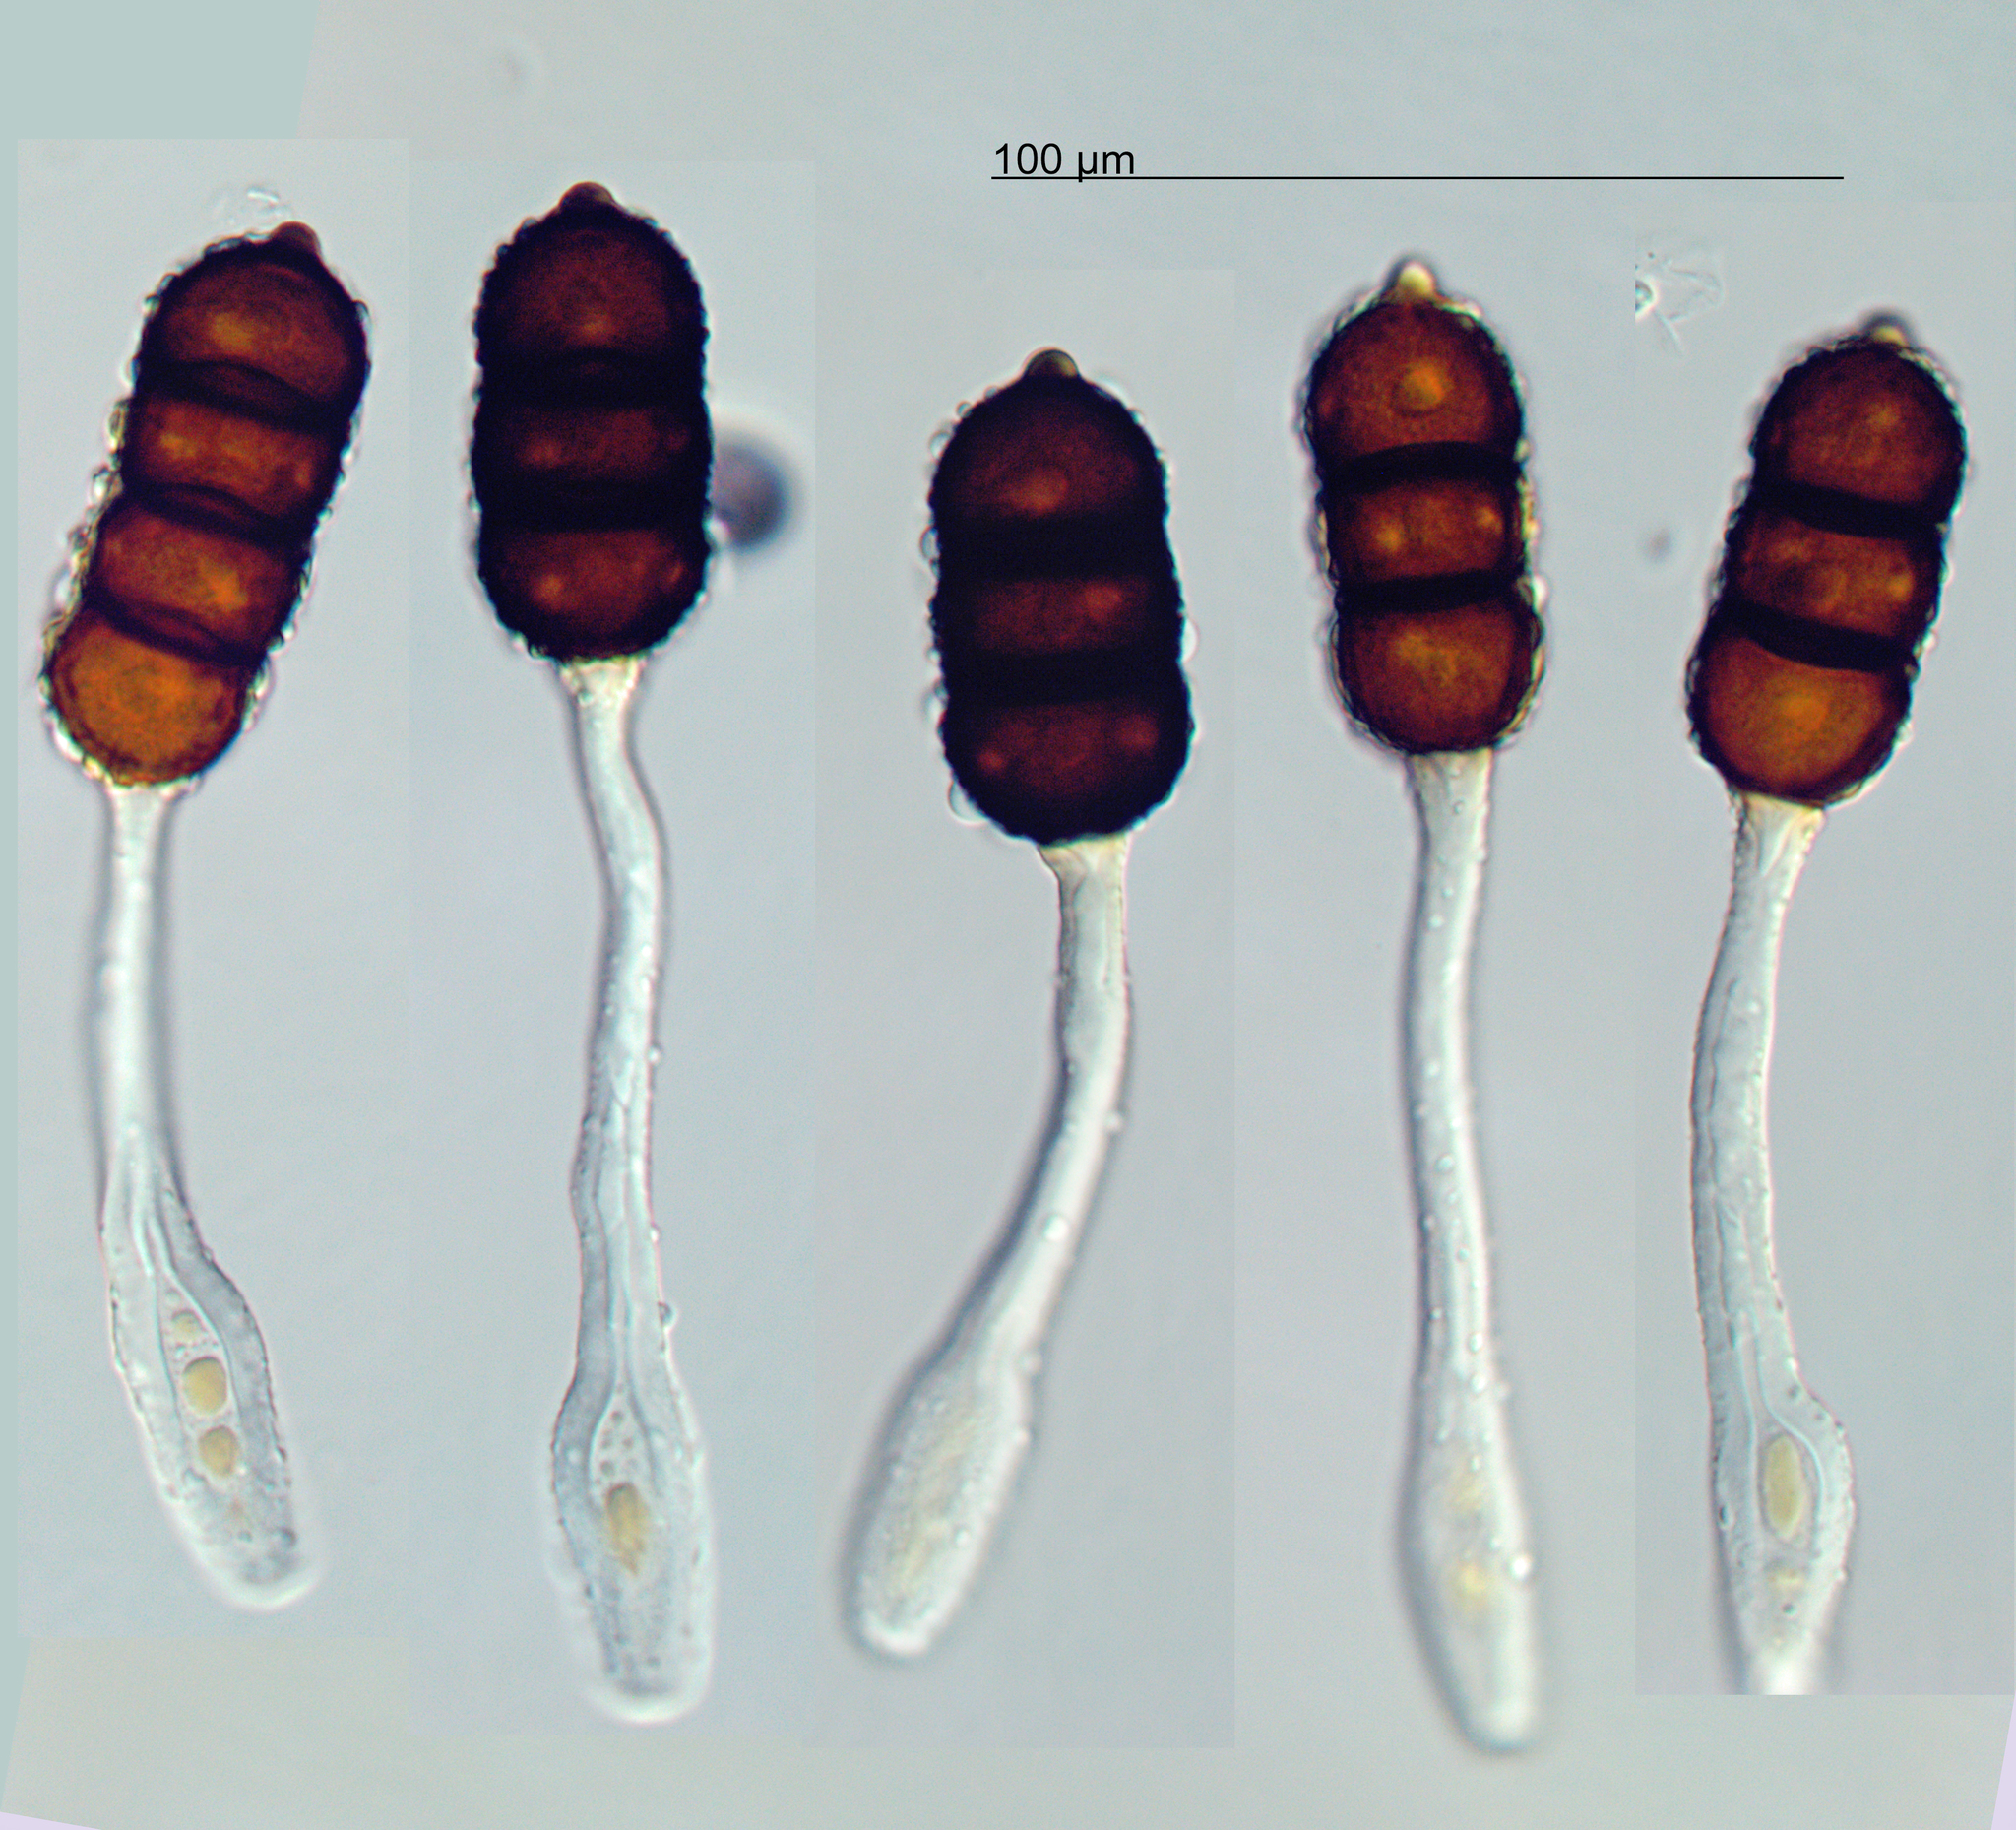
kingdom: Fungi
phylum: Basidiomycota
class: Pucciniomycetes
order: Pucciniales
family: Phragmidiaceae
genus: Phragmidium
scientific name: Phragmidium violaceum
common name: Violet bramble rust
